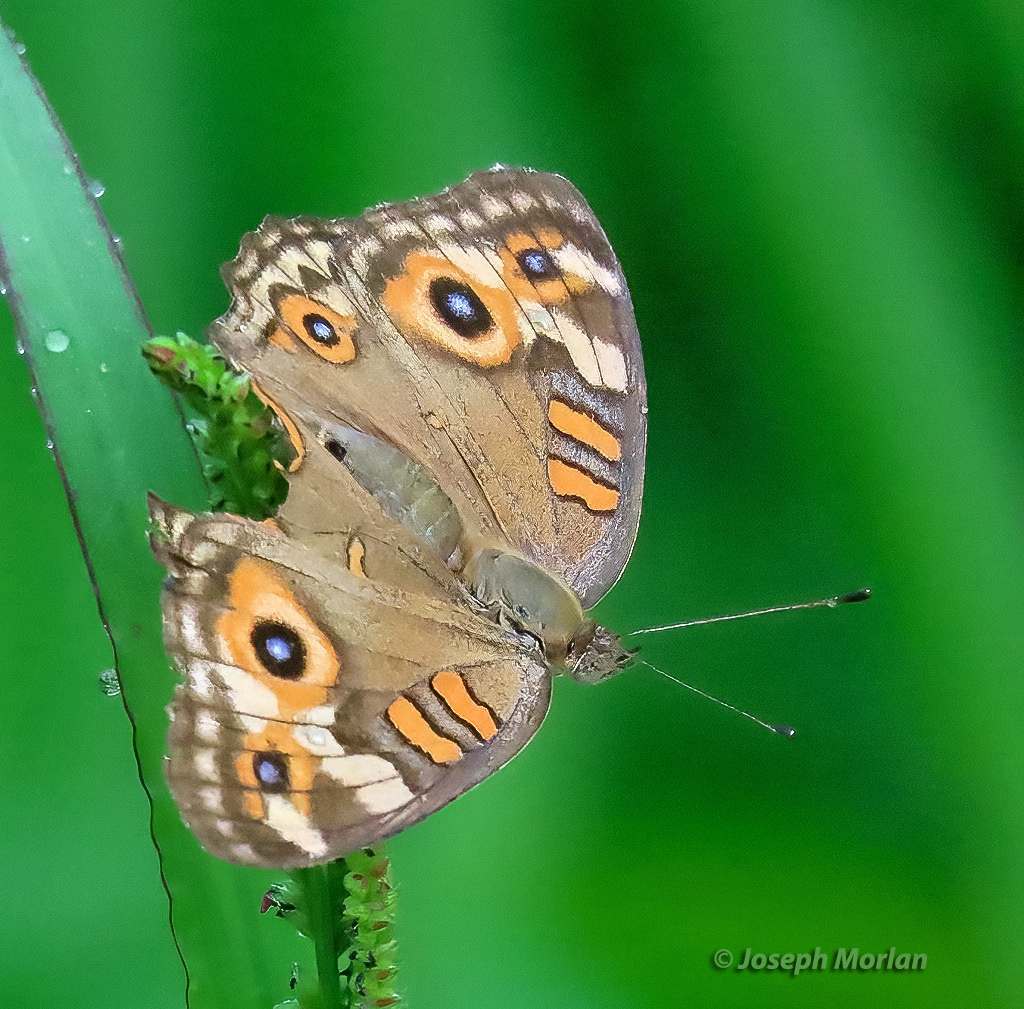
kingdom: Animalia
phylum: Arthropoda
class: Insecta
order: Lepidoptera
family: Nymphalidae
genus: Junonia
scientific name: Junonia villida
